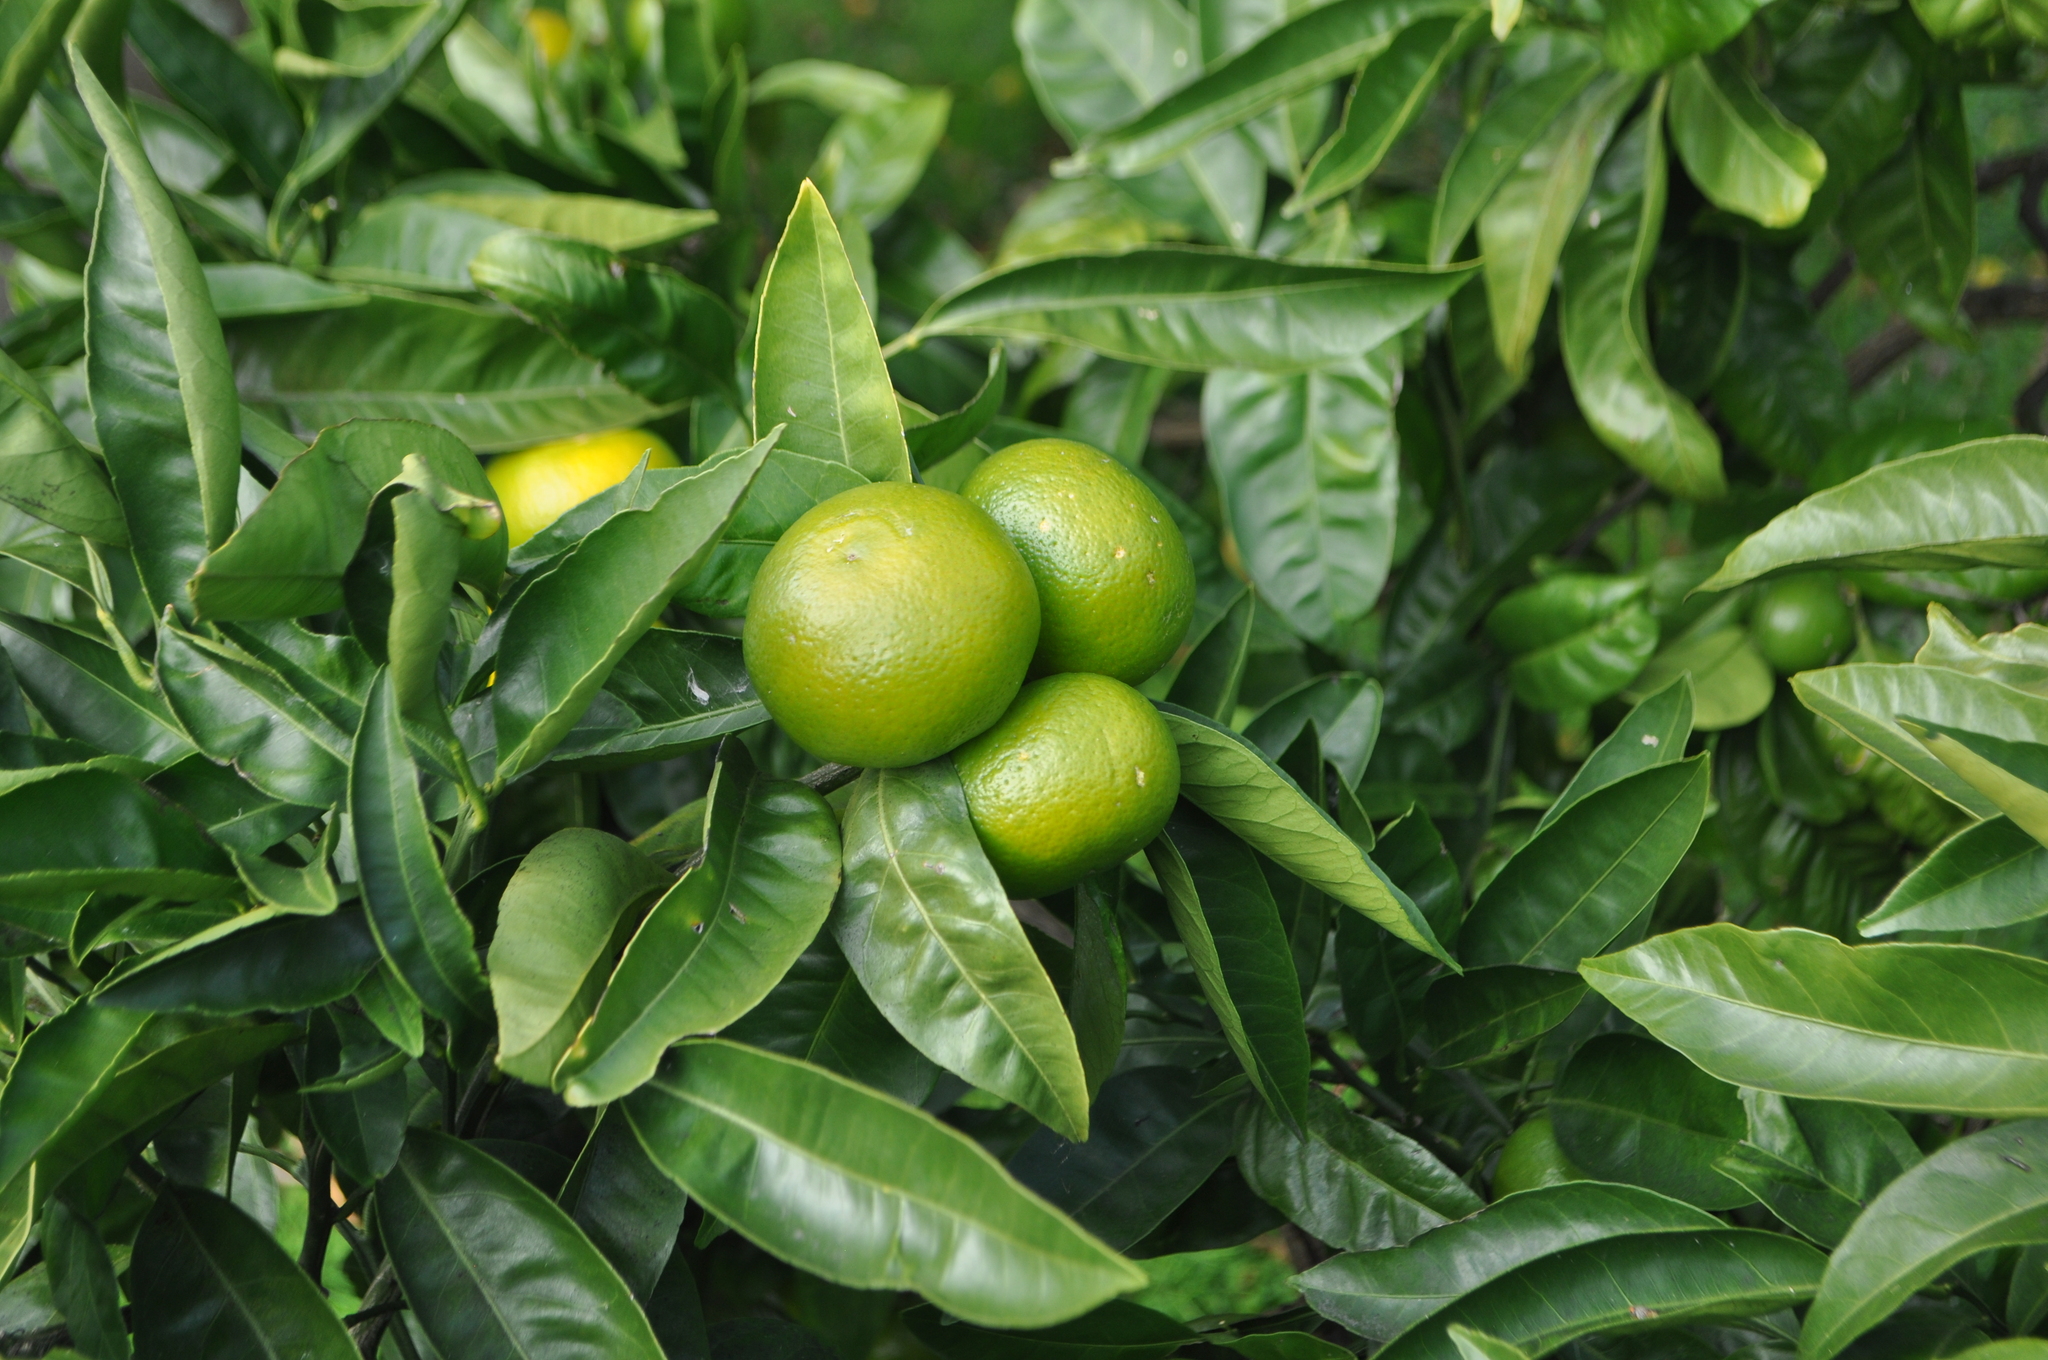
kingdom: Plantae
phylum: Tracheophyta
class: Magnoliopsida
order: Sapindales
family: Rutaceae
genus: Citrus
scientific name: Citrus aurantium
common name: Sour orange
